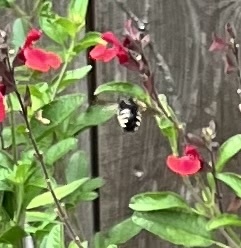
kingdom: Animalia
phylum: Arthropoda
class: Insecta
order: Hymenoptera
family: Apidae
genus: Xylocopa
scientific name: Xylocopa tabaniformis
